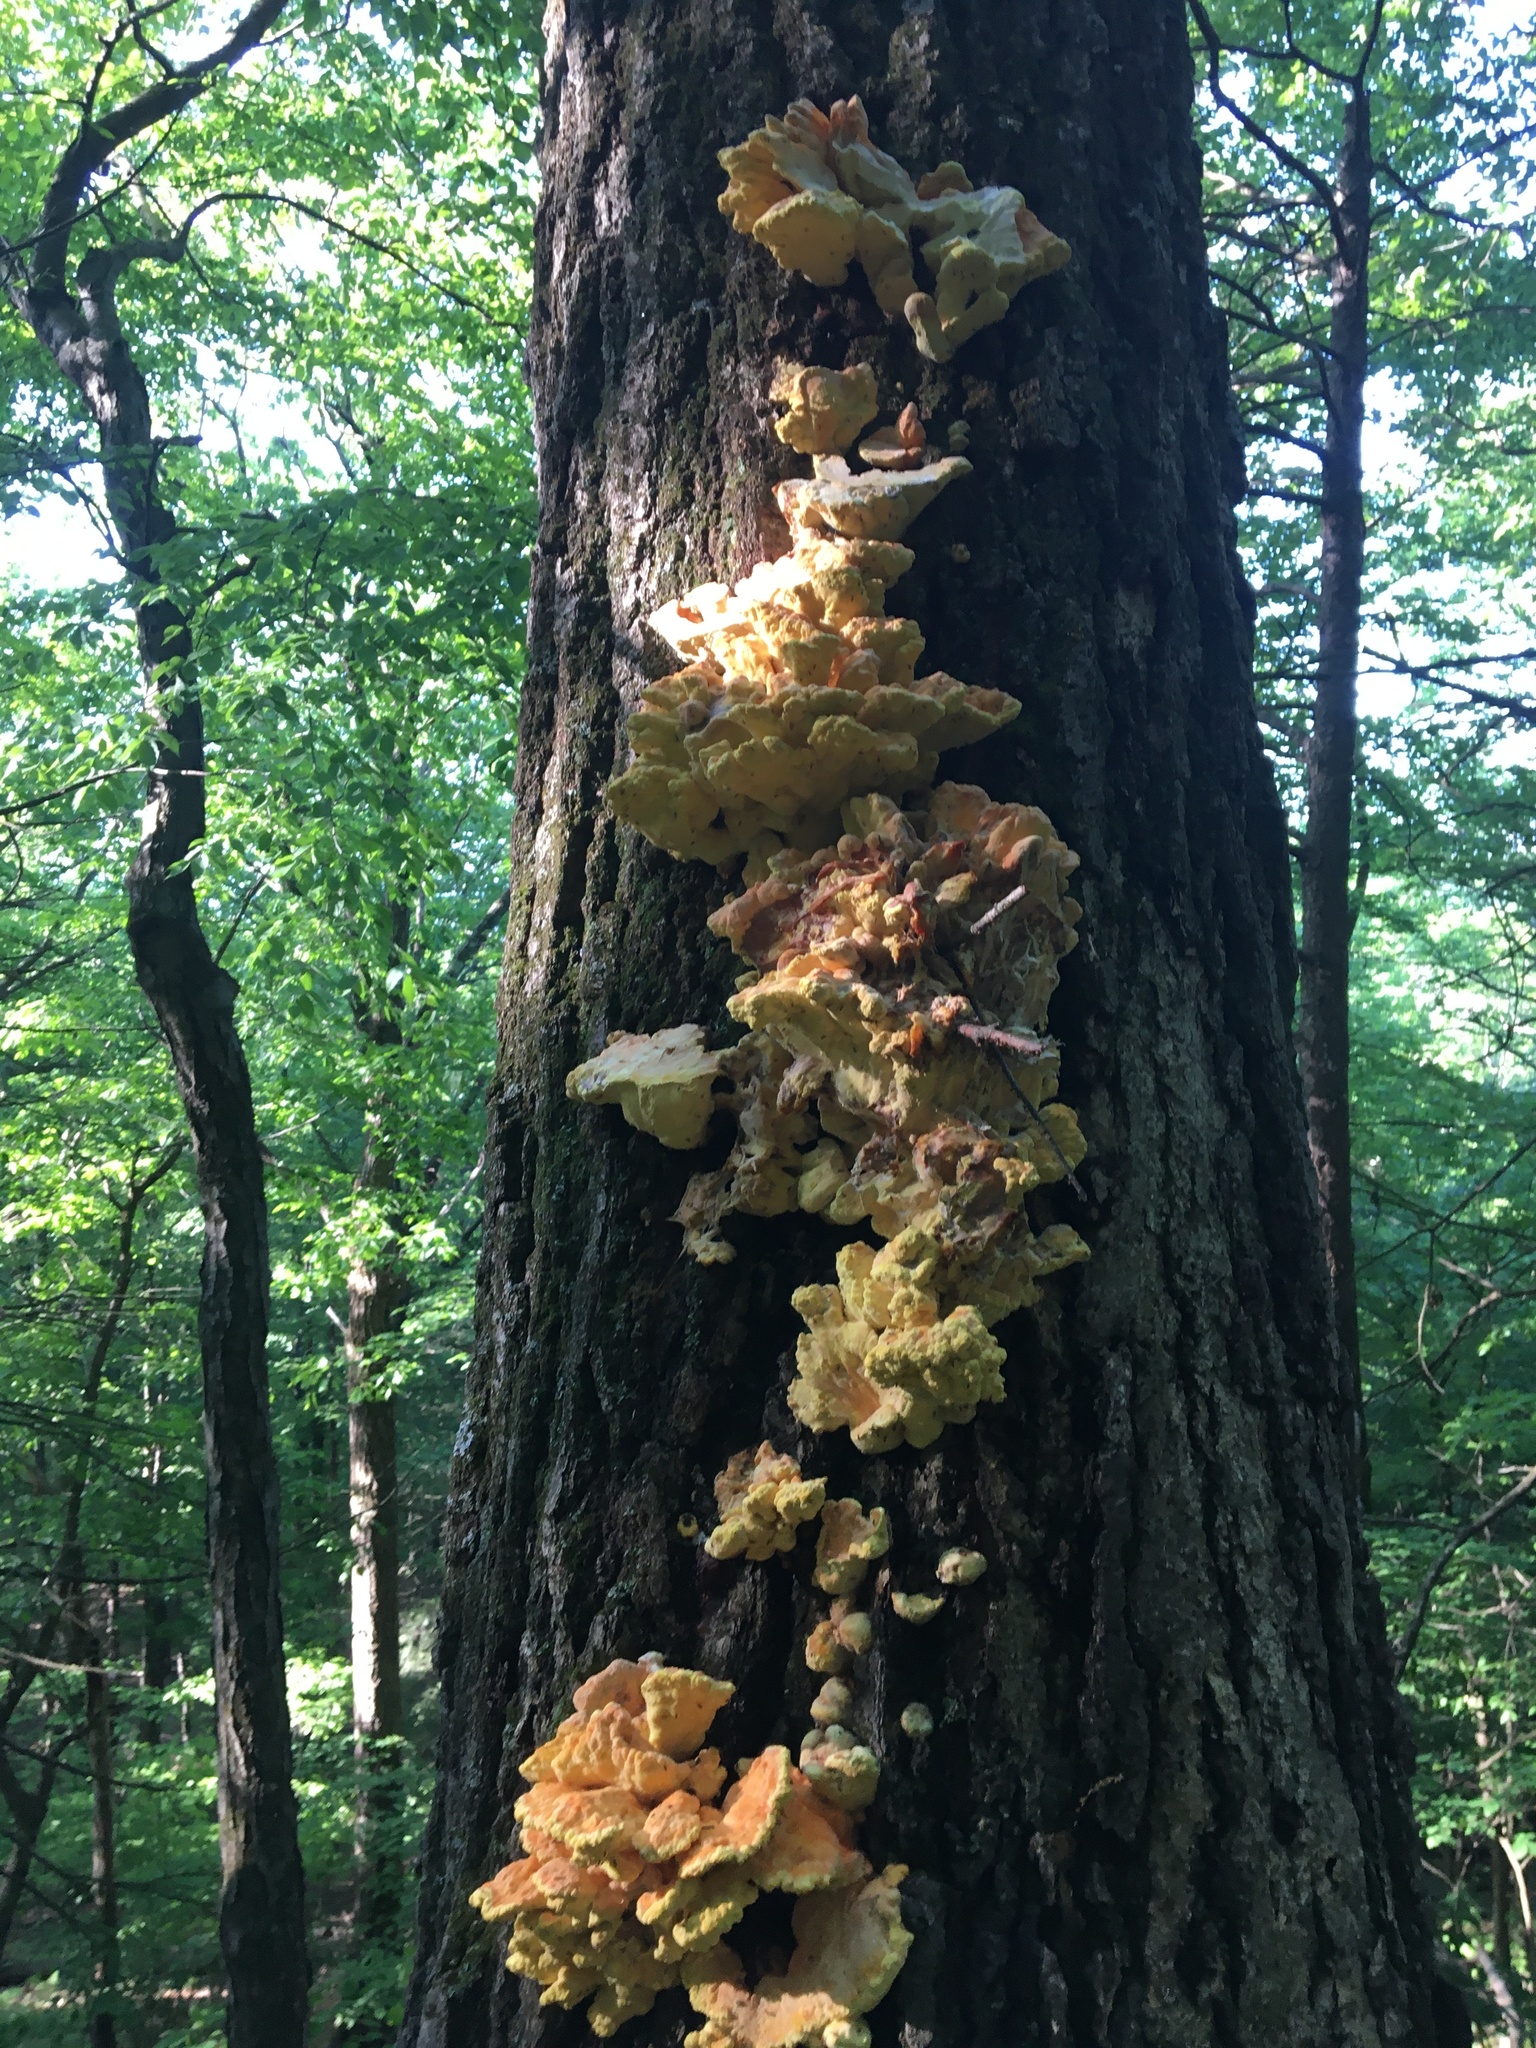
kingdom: Fungi
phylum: Basidiomycota
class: Agaricomycetes
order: Polyporales
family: Laetiporaceae
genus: Laetiporus
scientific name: Laetiporus sulphureus
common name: Chicken of the woods
